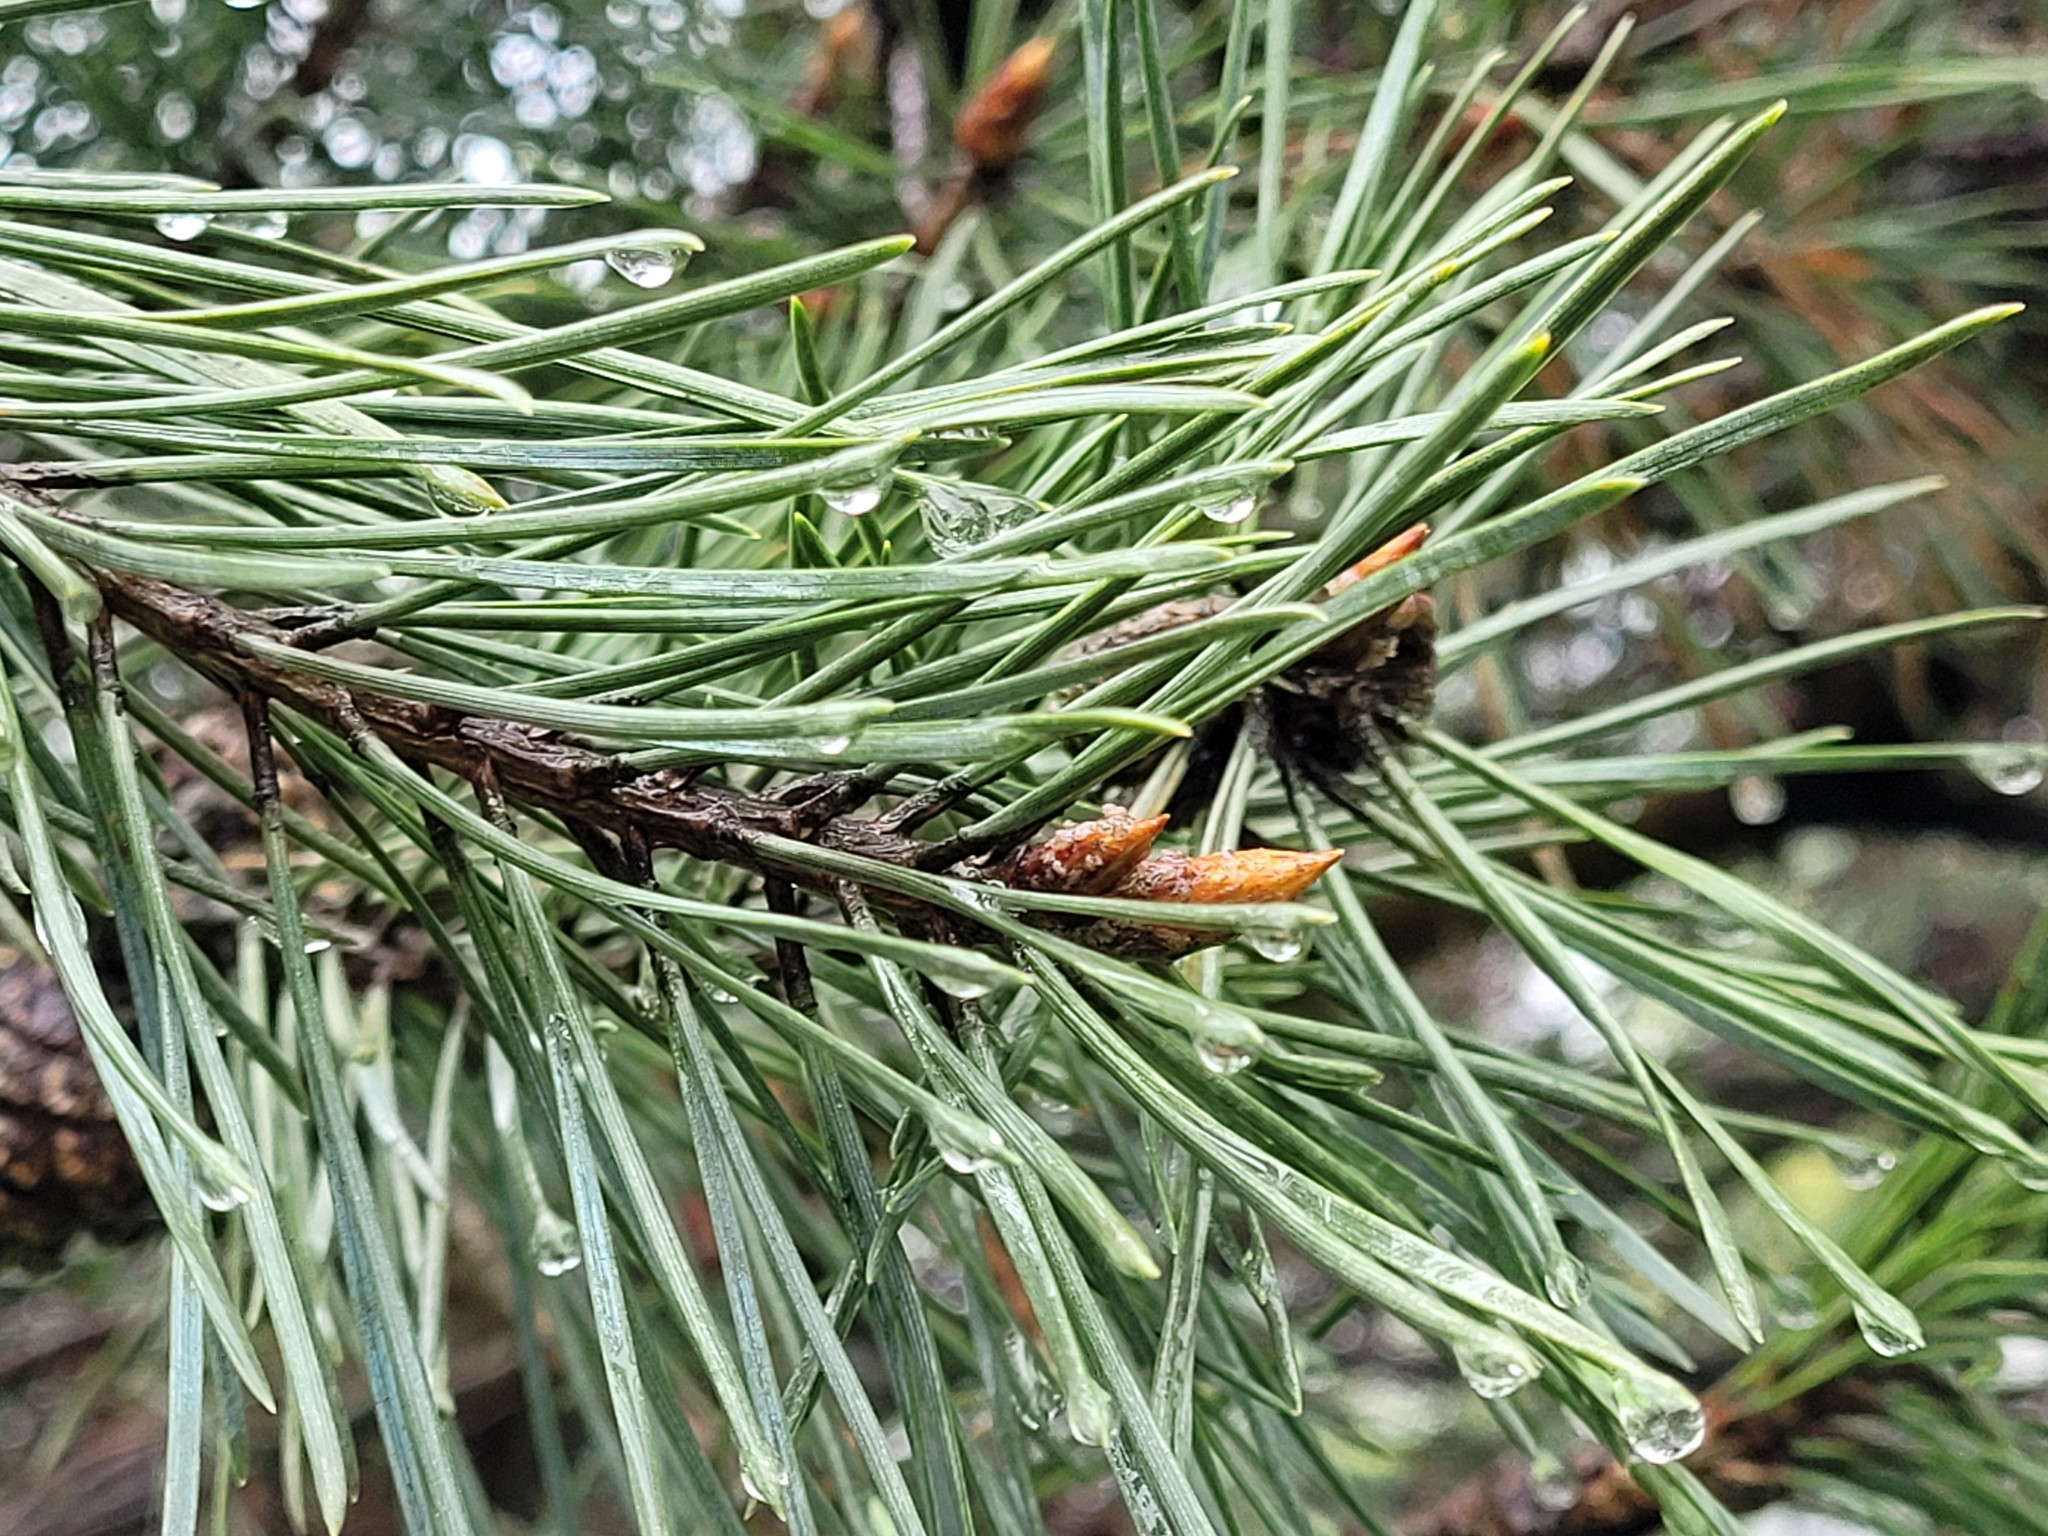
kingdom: Plantae
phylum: Tracheophyta
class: Pinopsida
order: Pinales
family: Pinaceae
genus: Pinus
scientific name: Pinus contorta
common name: Lodgepole pine
